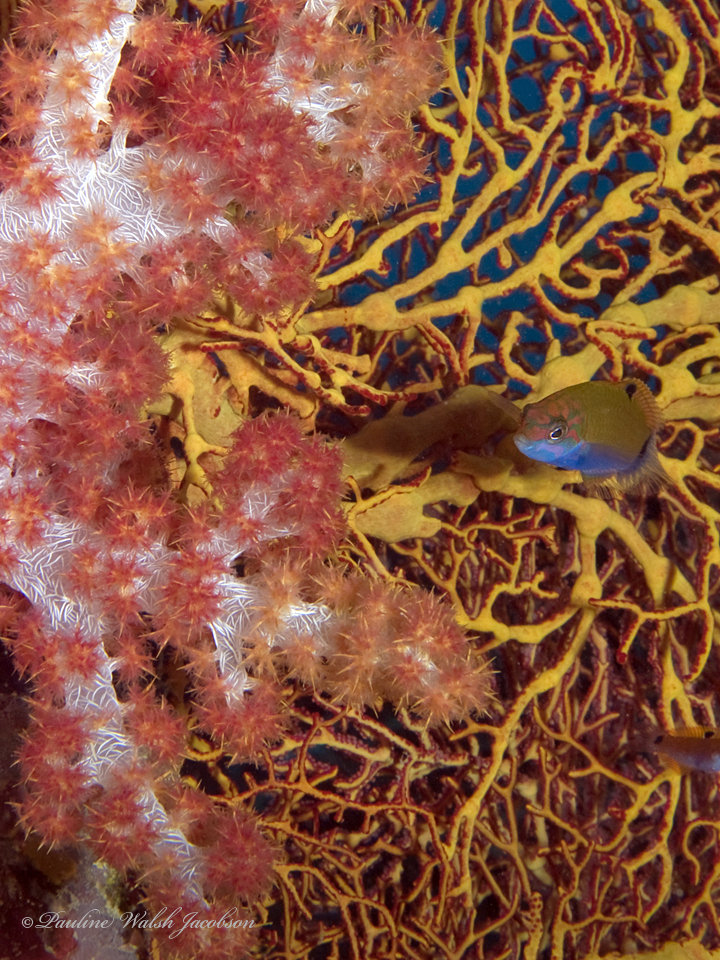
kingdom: Animalia
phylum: Chordata
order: Perciformes
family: Labridae
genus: Thalassoma
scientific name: Thalassoma lunare
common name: Blue wrasse
